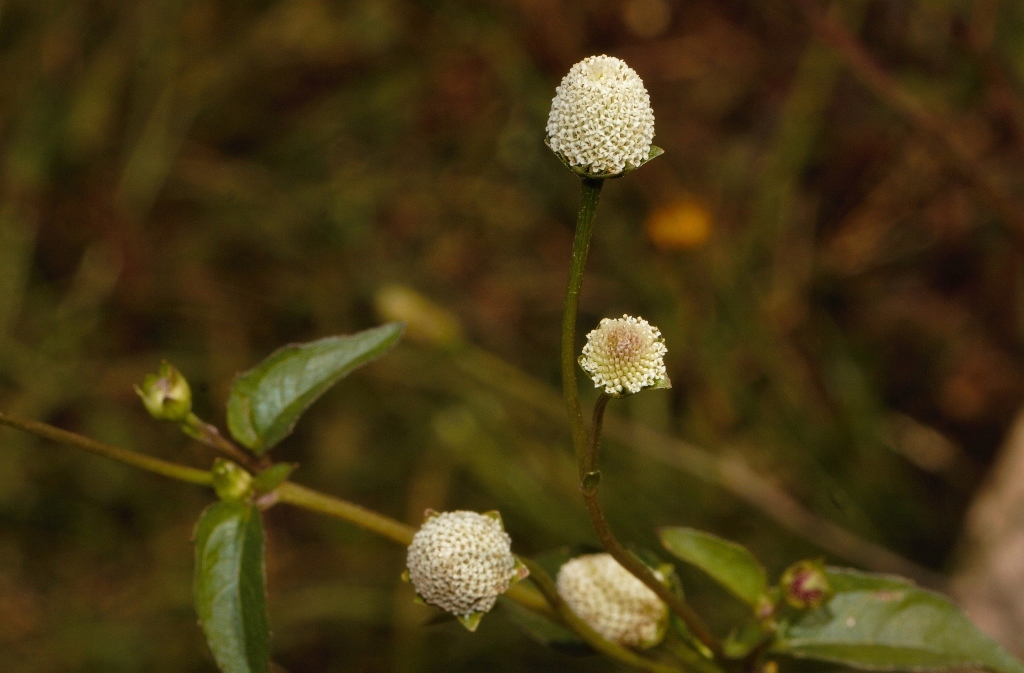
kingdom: Plantae
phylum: Tracheophyta
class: Magnoliopsida
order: Asterales
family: Asteraceae
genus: Acmella
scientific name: Acmella radicans
